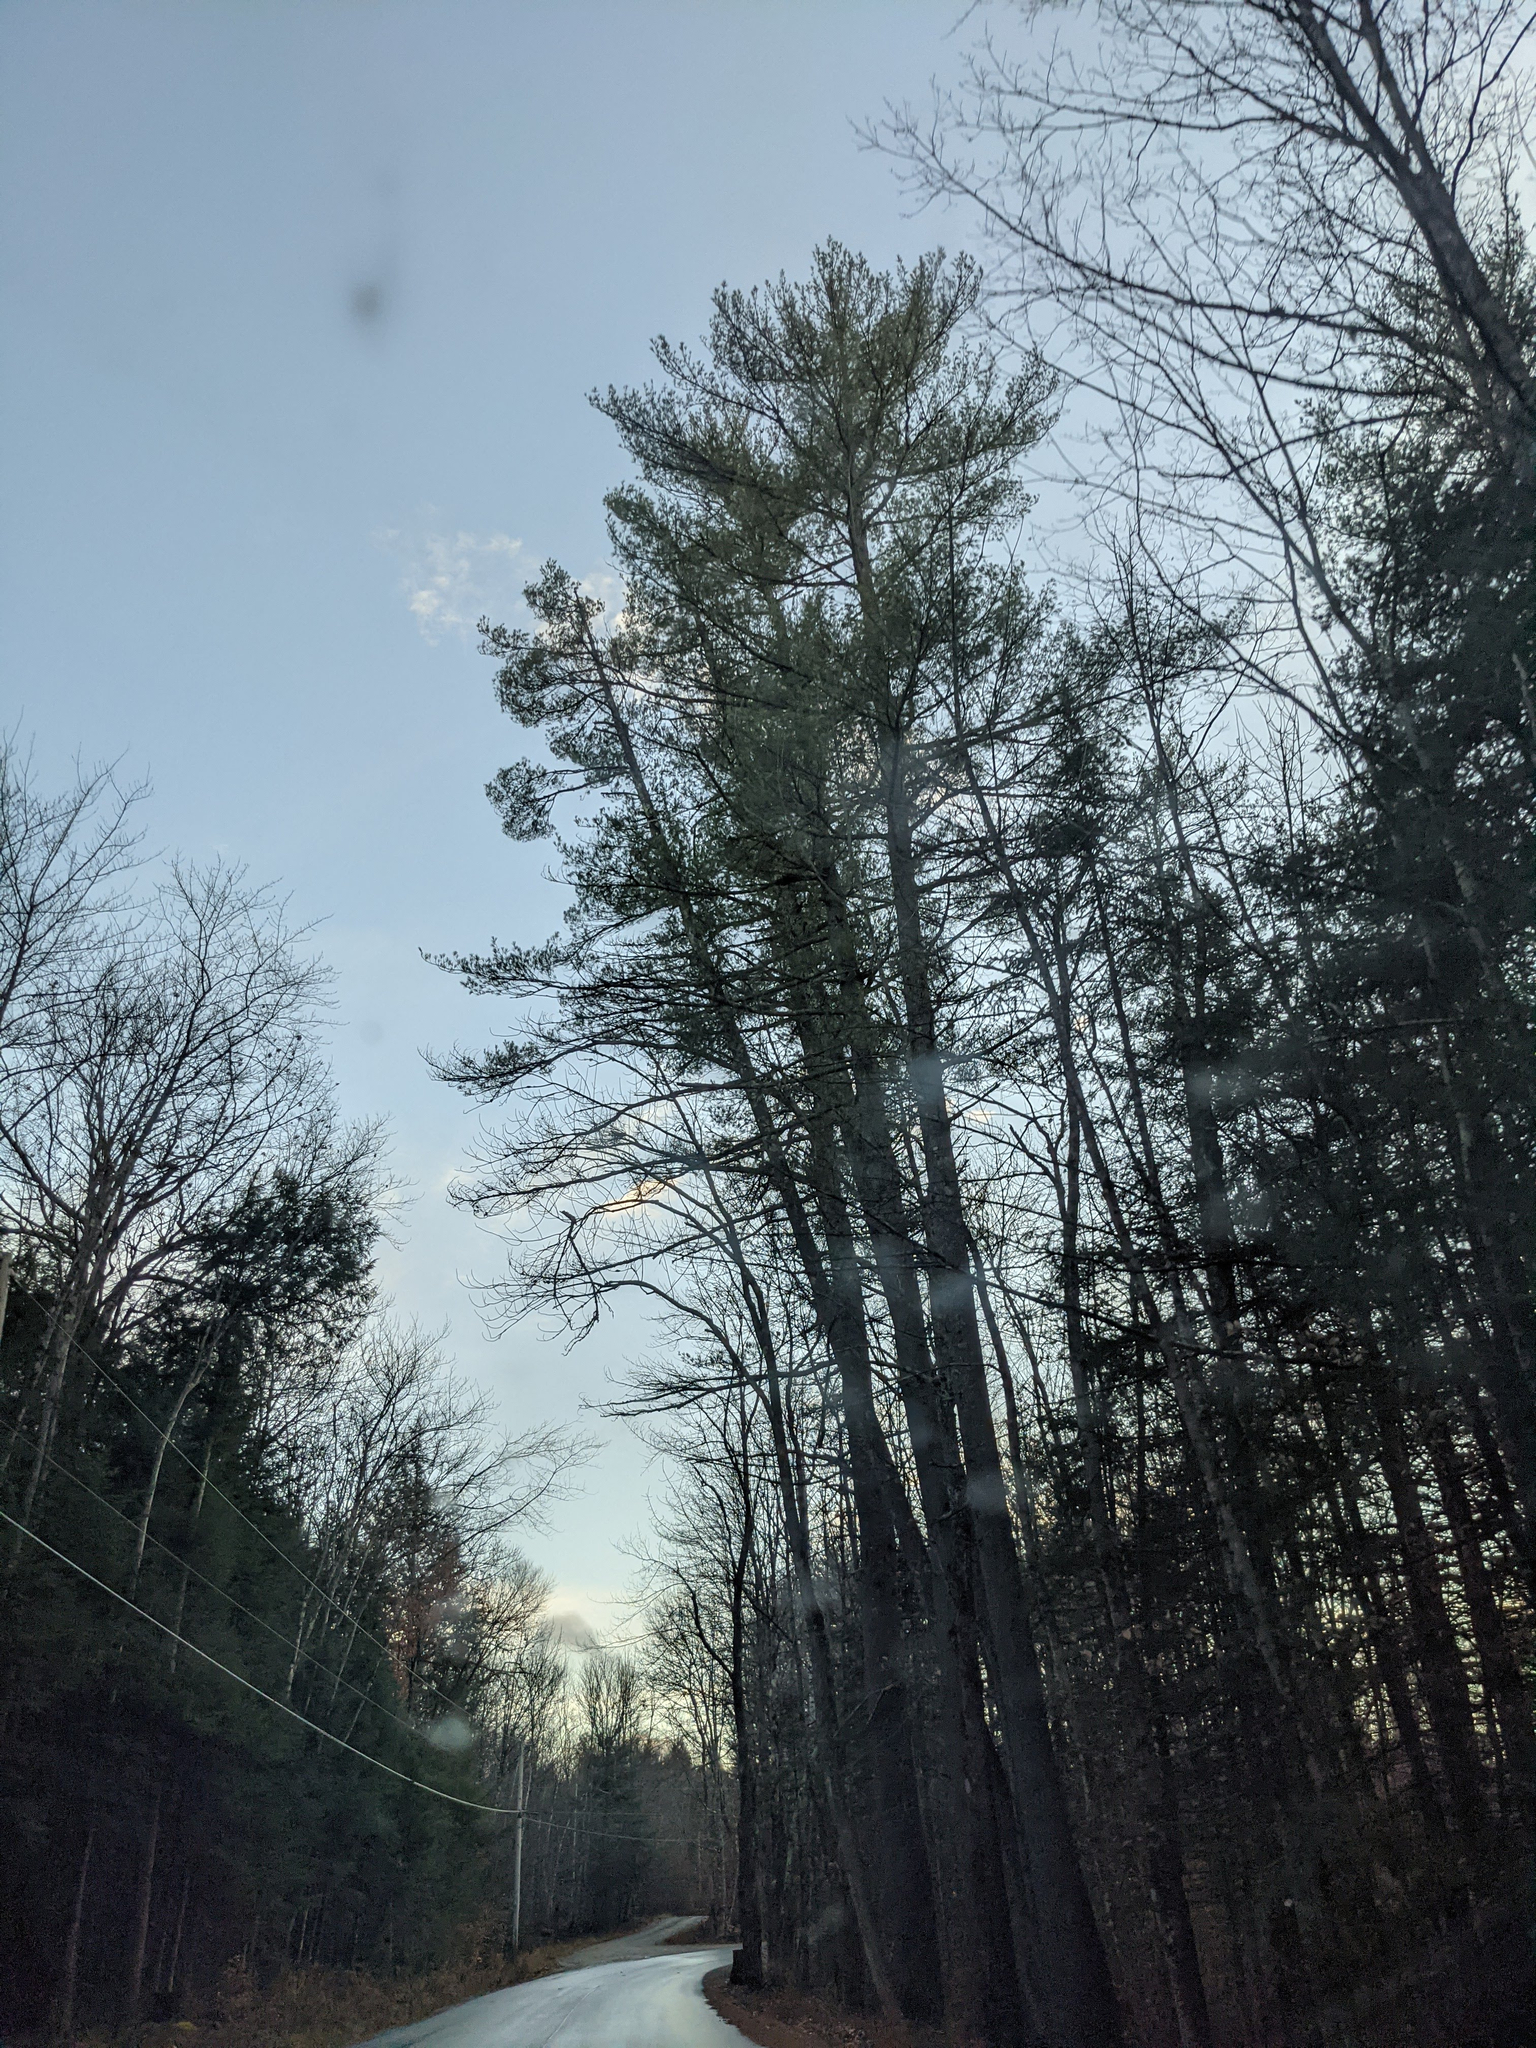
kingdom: Plantae
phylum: Tracheophyta
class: Pinopsida
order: Pinales
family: Pinaceae
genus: Pinus
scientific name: Pinus strobus
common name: Weymouth pine
